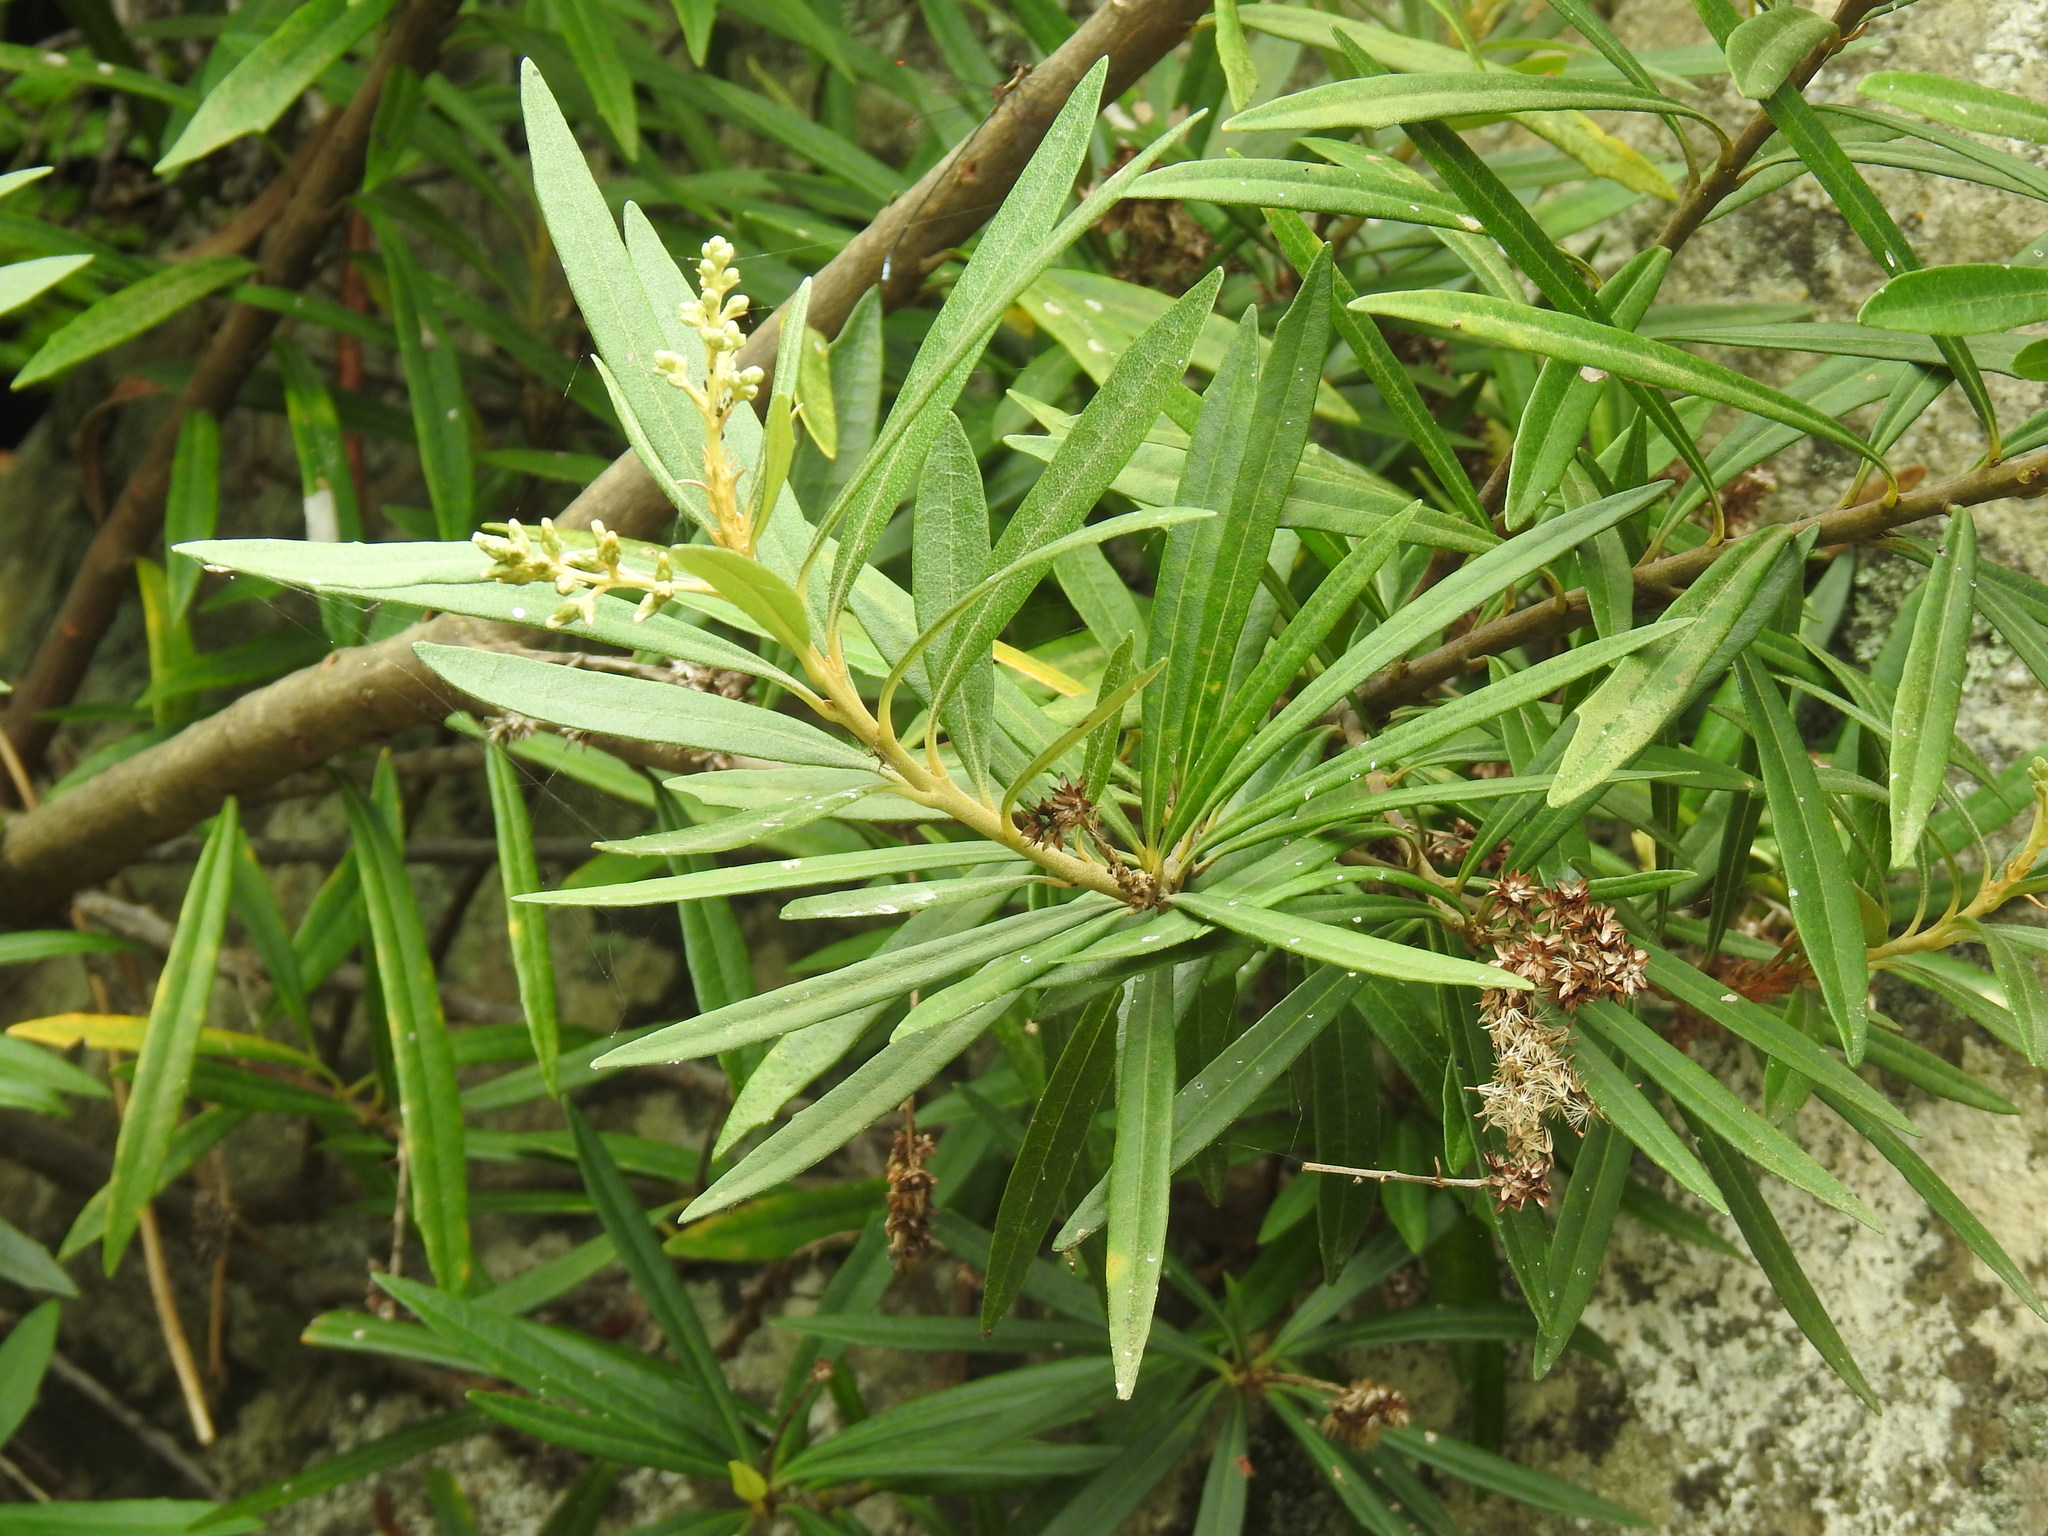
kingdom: Plantae
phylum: Tracheophyta
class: Magnoliopsida
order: Asterales
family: Asteraceae
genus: Brachylaena
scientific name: Brachylaena neriifolia
